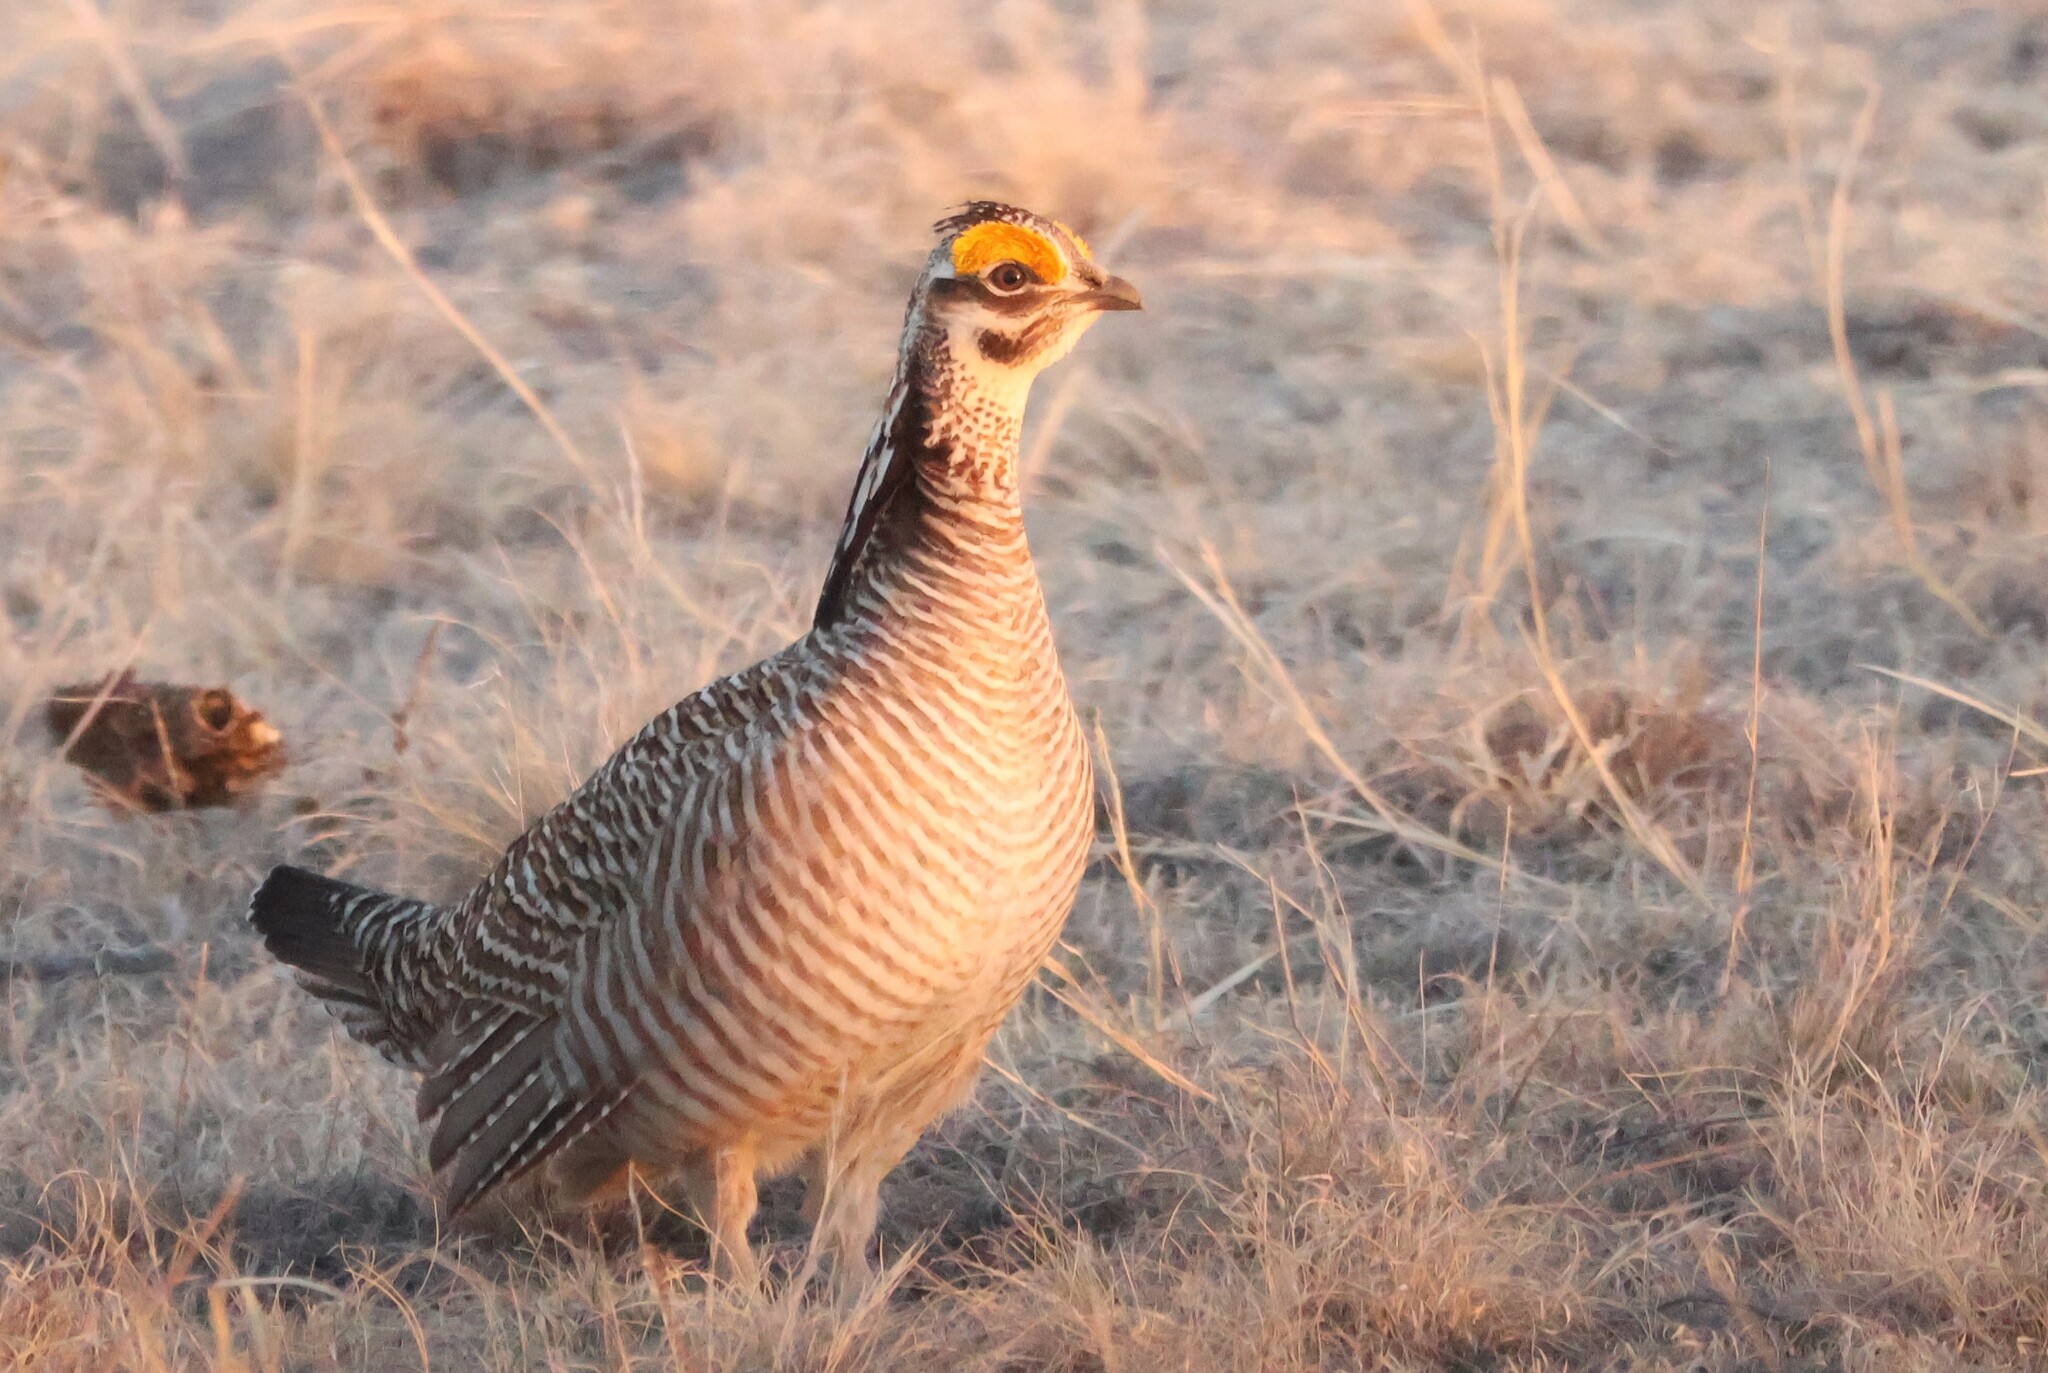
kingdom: Animalia
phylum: Chordata
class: Aves
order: Galliformes
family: Phasianidae
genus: Tympanuchus
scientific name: Tympanuchus pallidicinctus
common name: Lesser prairie chicken
